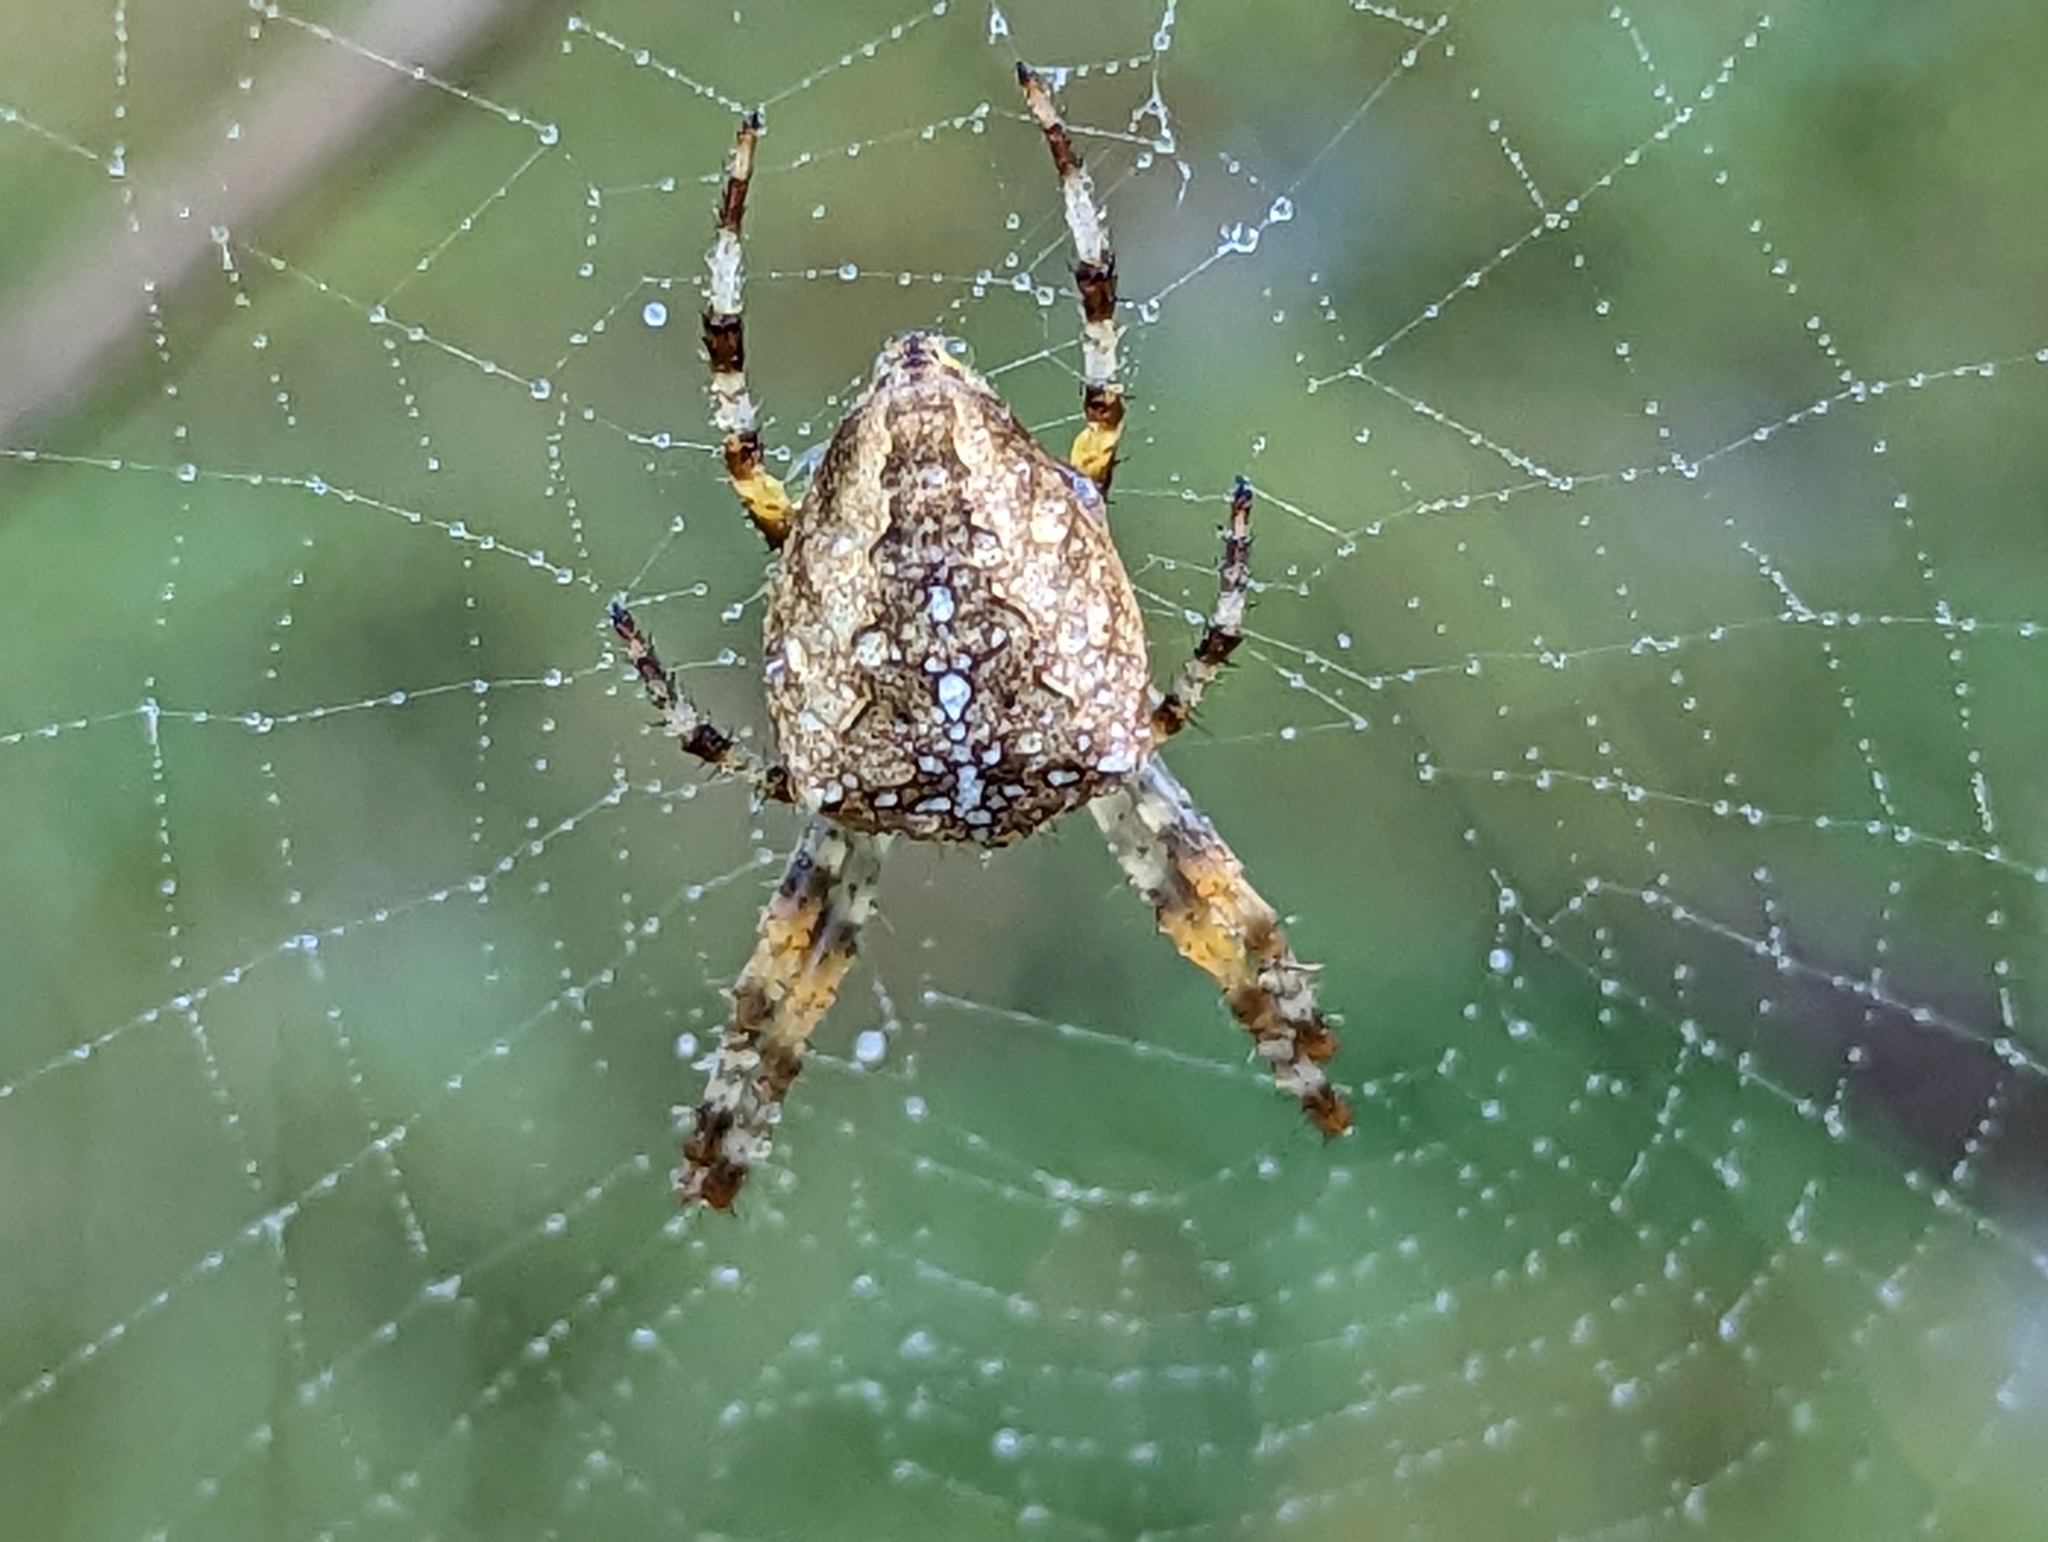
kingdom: Animalia
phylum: Arthropoda
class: Arachnida
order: Araneae
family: Araneidae
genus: Araneus
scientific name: Araneus diadematus
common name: Cross orbweaver
